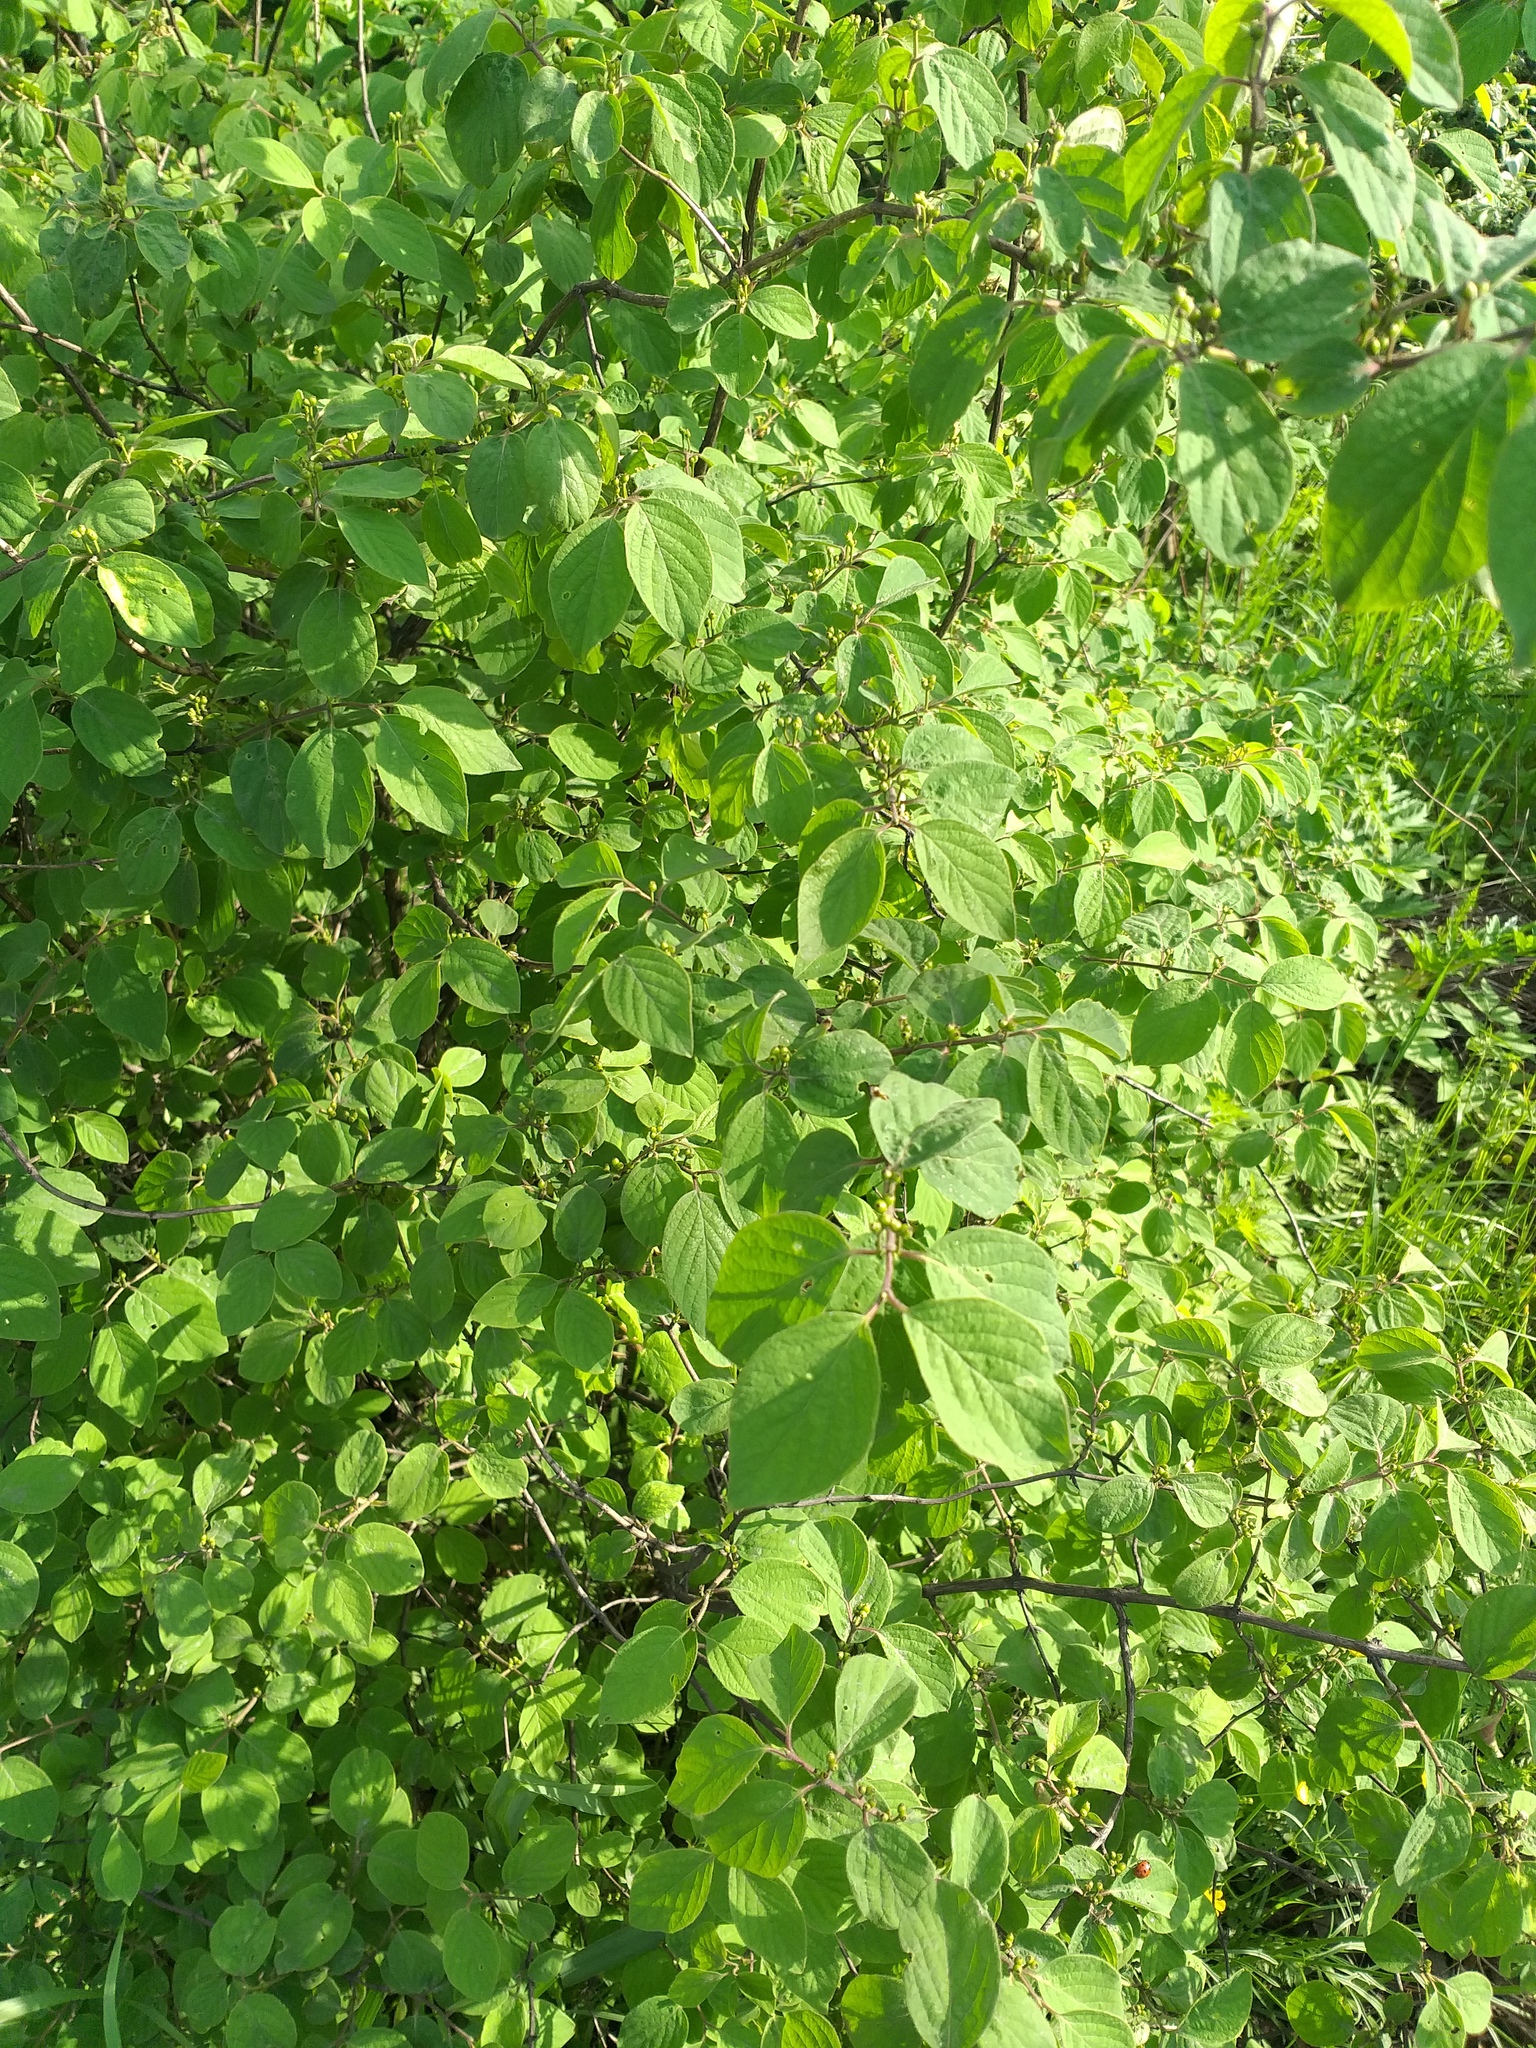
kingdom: Plantae
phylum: Tracheophyta
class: Magnoliopsida
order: Dipsacales
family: Caprifoliaceae
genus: Lonicera
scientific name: Lonicera xylosteum
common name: Fly honeysuckle
